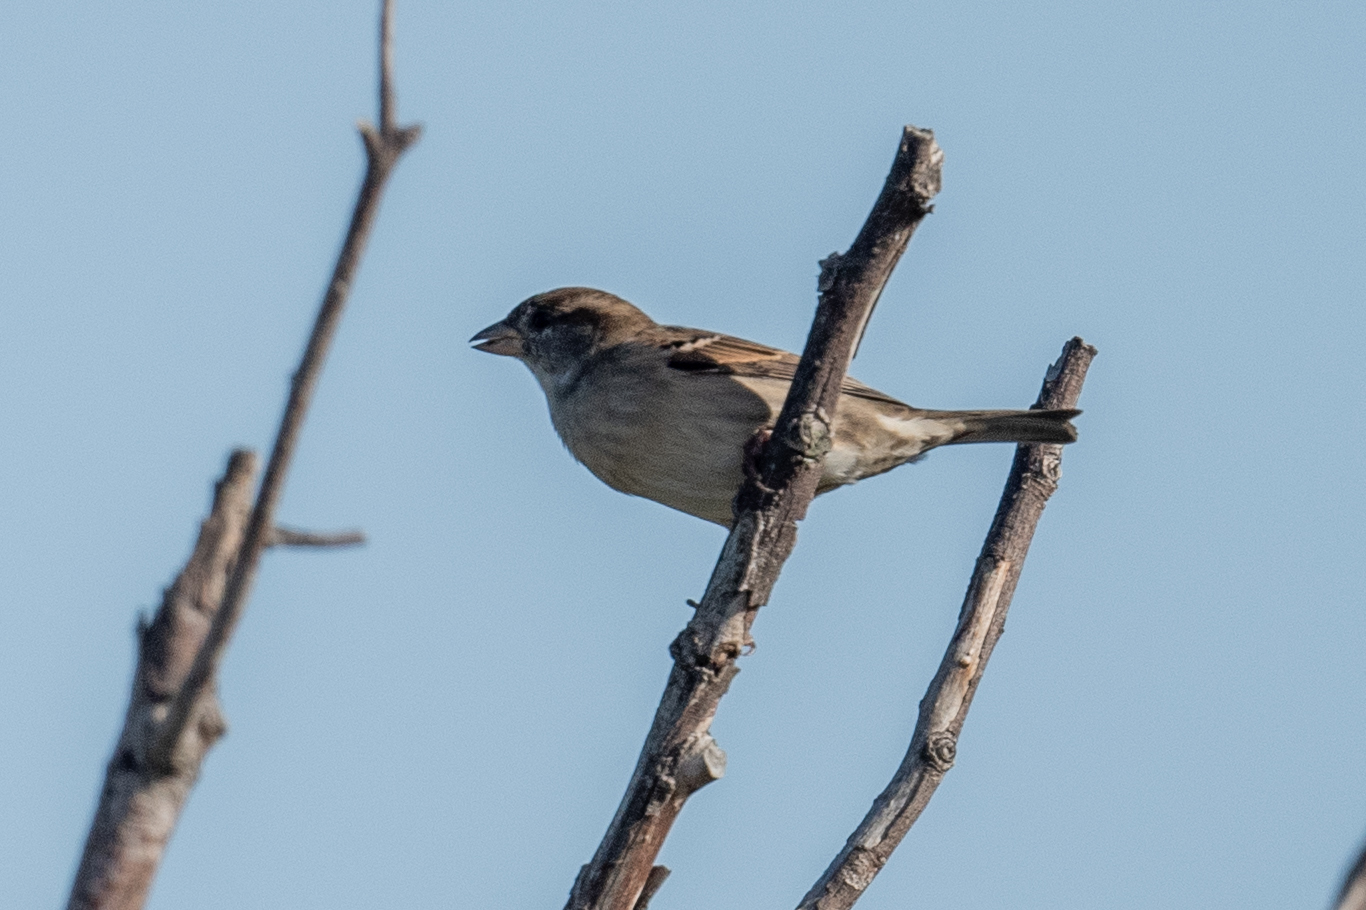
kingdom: Animalia
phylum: Chordata
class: Aves
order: Passeriformes
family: Passeridae
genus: Passer
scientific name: Passer domesticus
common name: House sparrow
